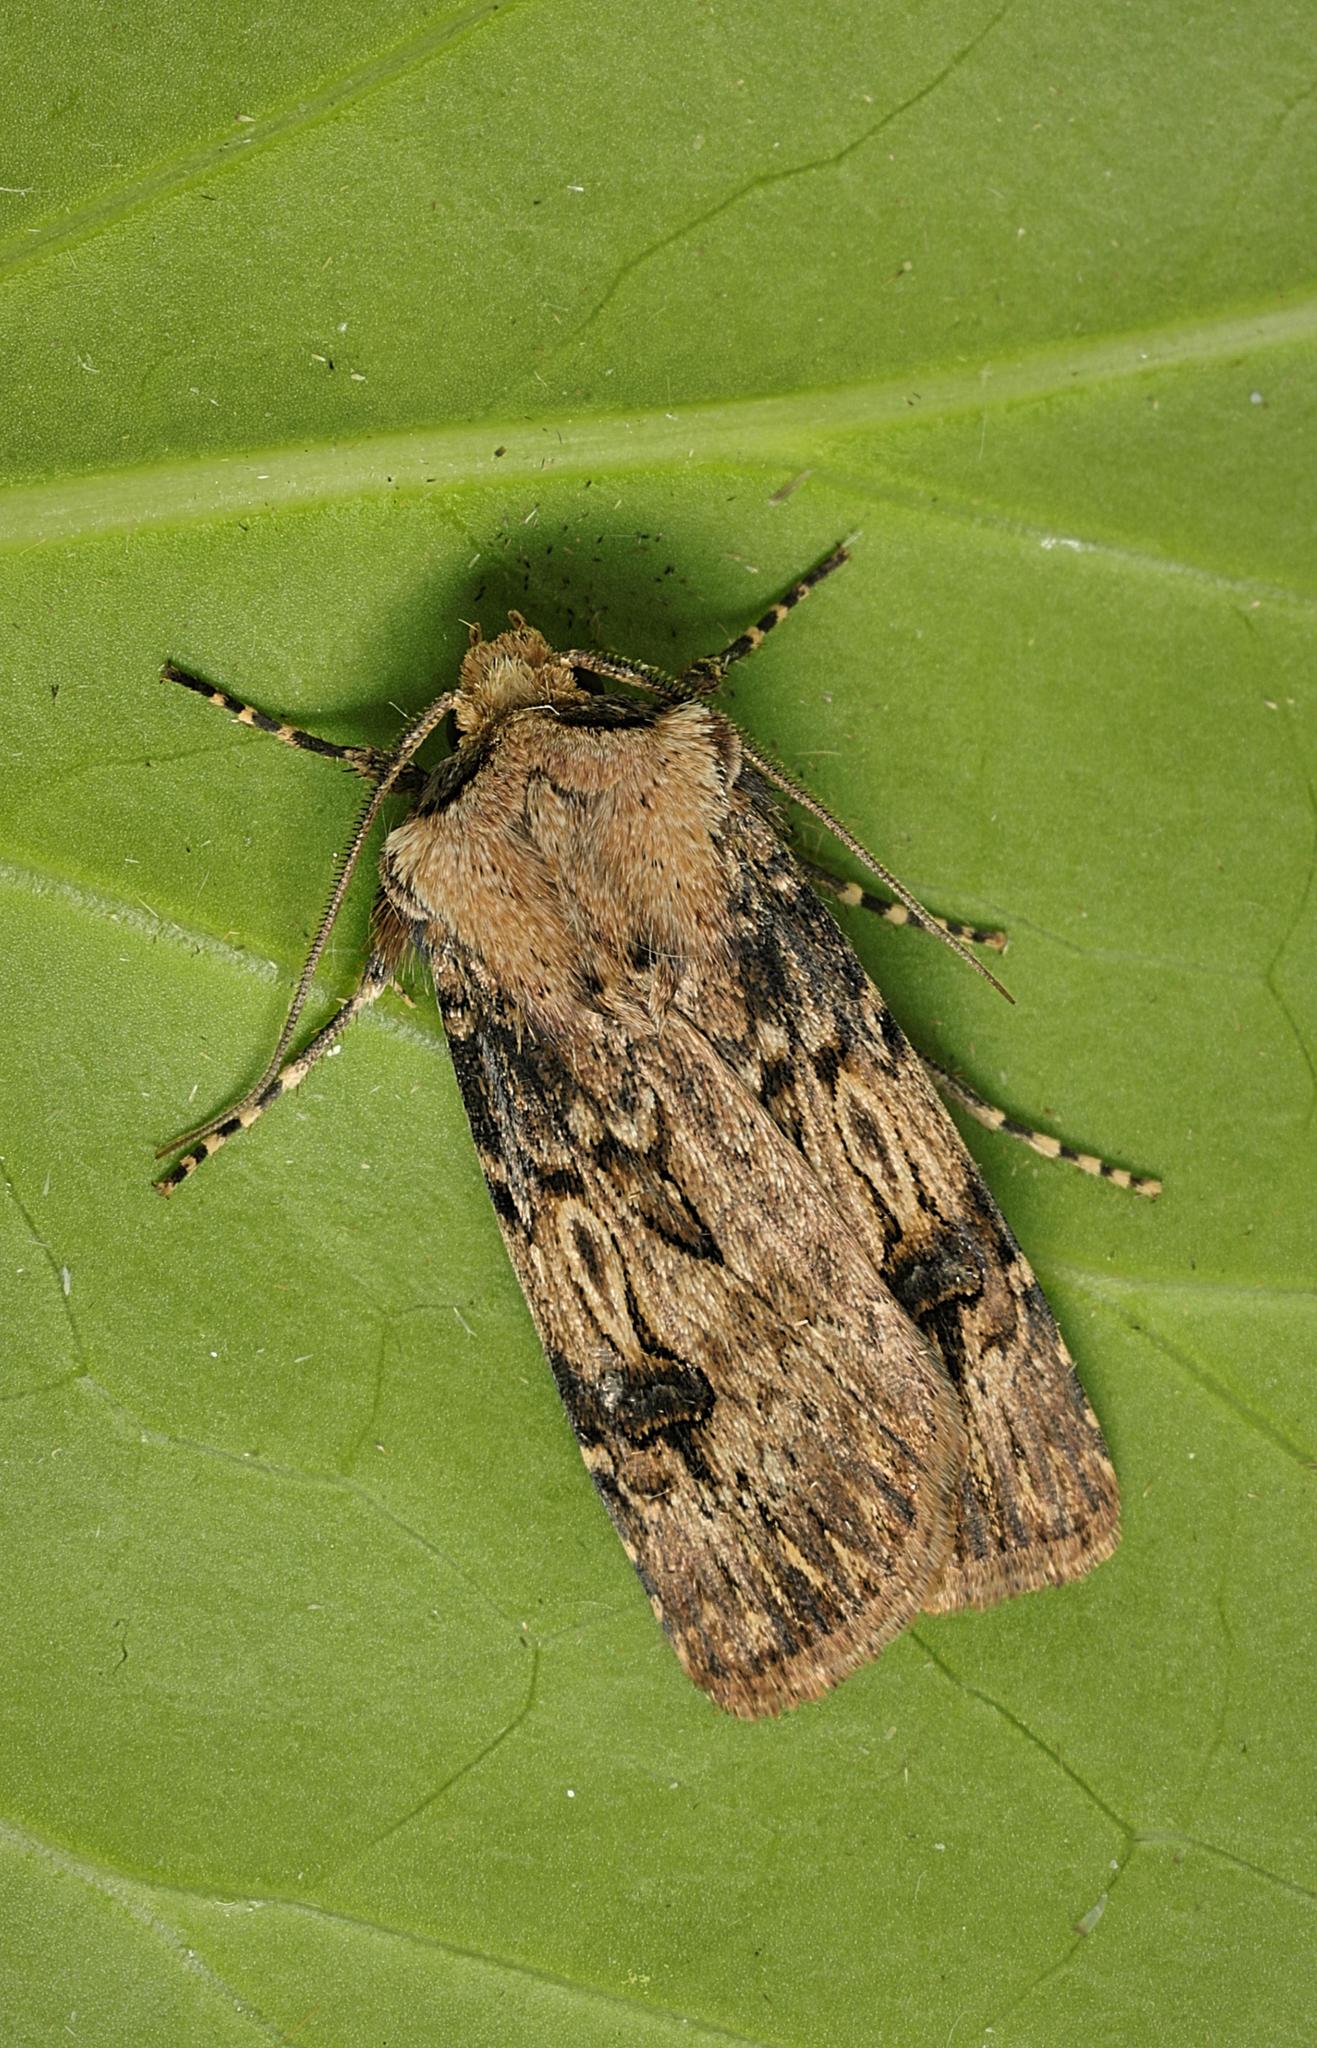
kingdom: Animalia
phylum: Arthropoda
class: Insecta
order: Lepidoptera
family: Noctuidae
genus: Agrotis
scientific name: Agrotis puta
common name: Shuttle-shaped dart
